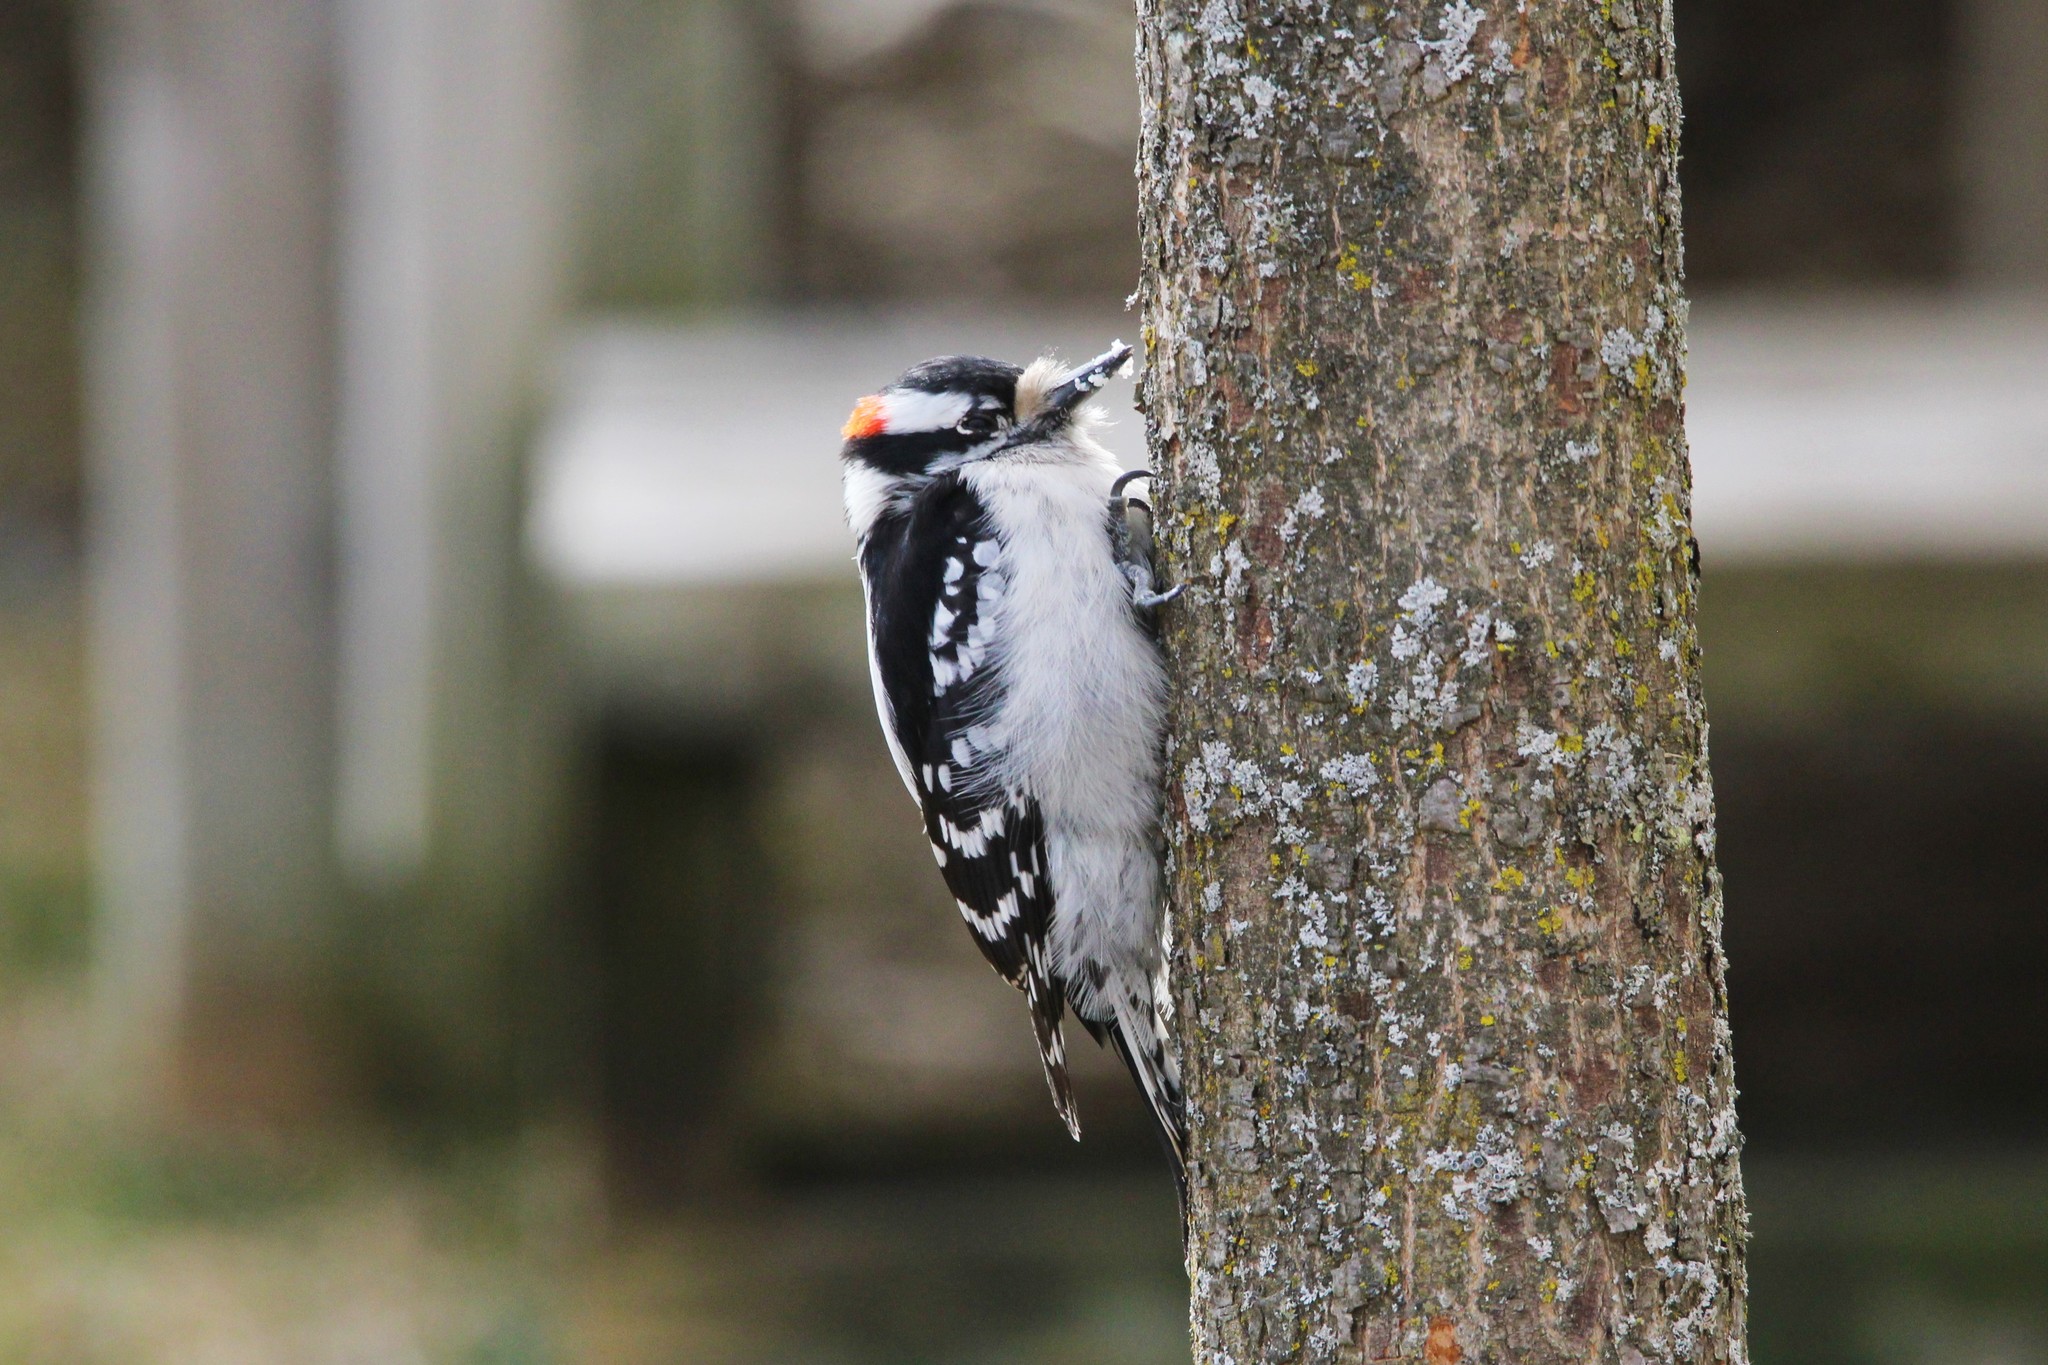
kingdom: Animalia
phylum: Chordata
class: Aves
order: Piciformes
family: Picidae
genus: Dryobates
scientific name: Dryobates pubescens
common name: Downy woodpecker
